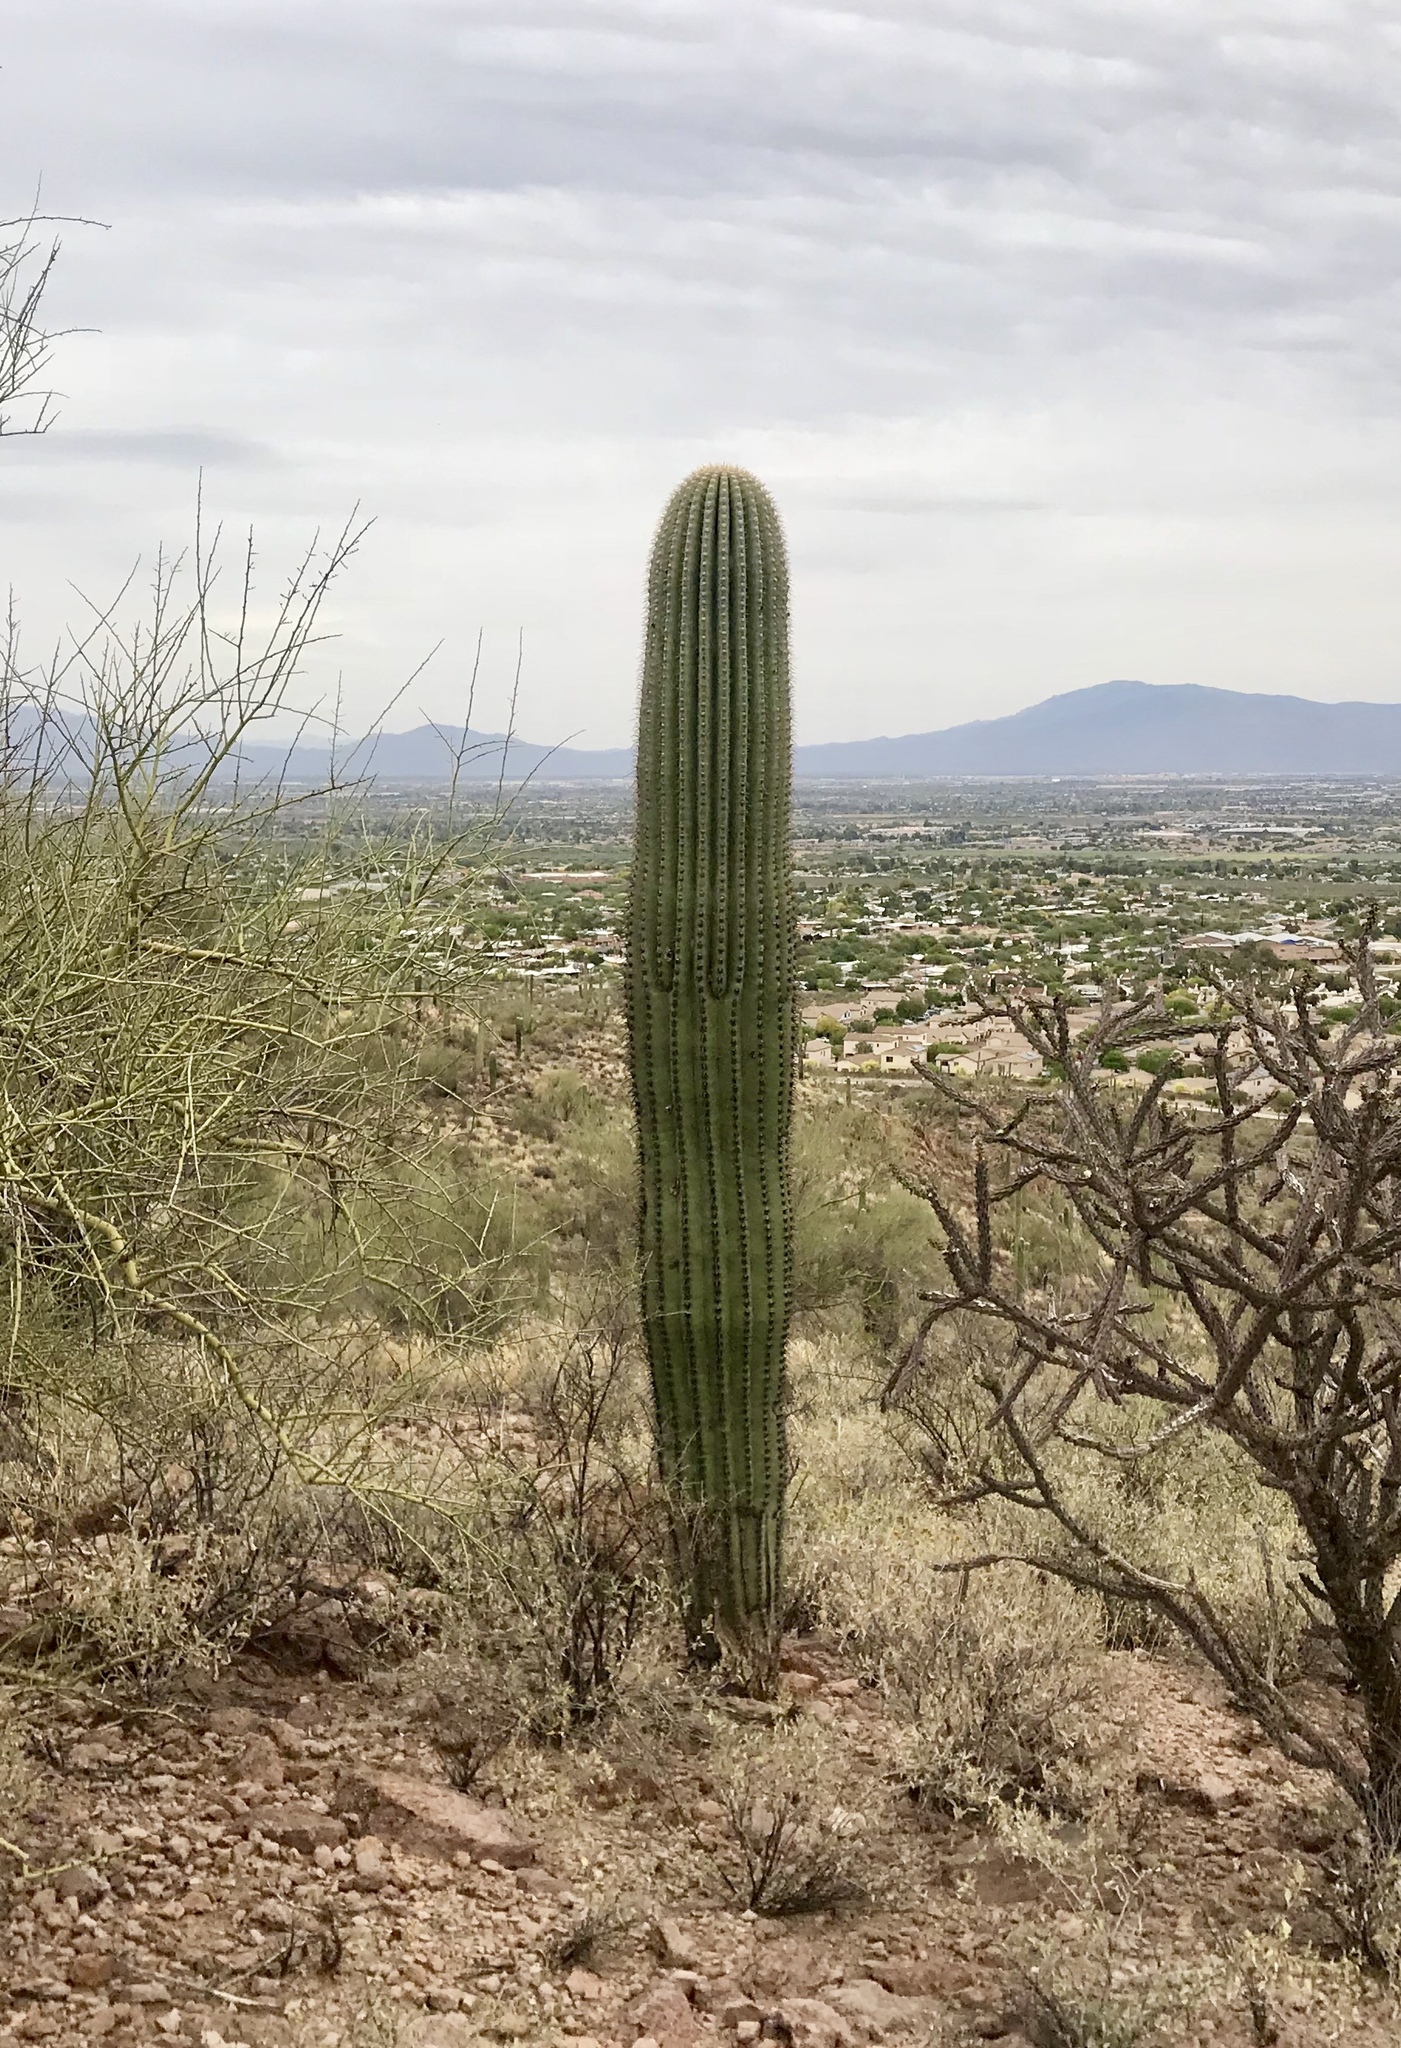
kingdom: Plantae
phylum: Tracheophyta
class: Magnoliopsida
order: Caryophyllales
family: Cactaceae
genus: Carnegiea
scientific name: Carnegiea gigantea
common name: Saguaro
